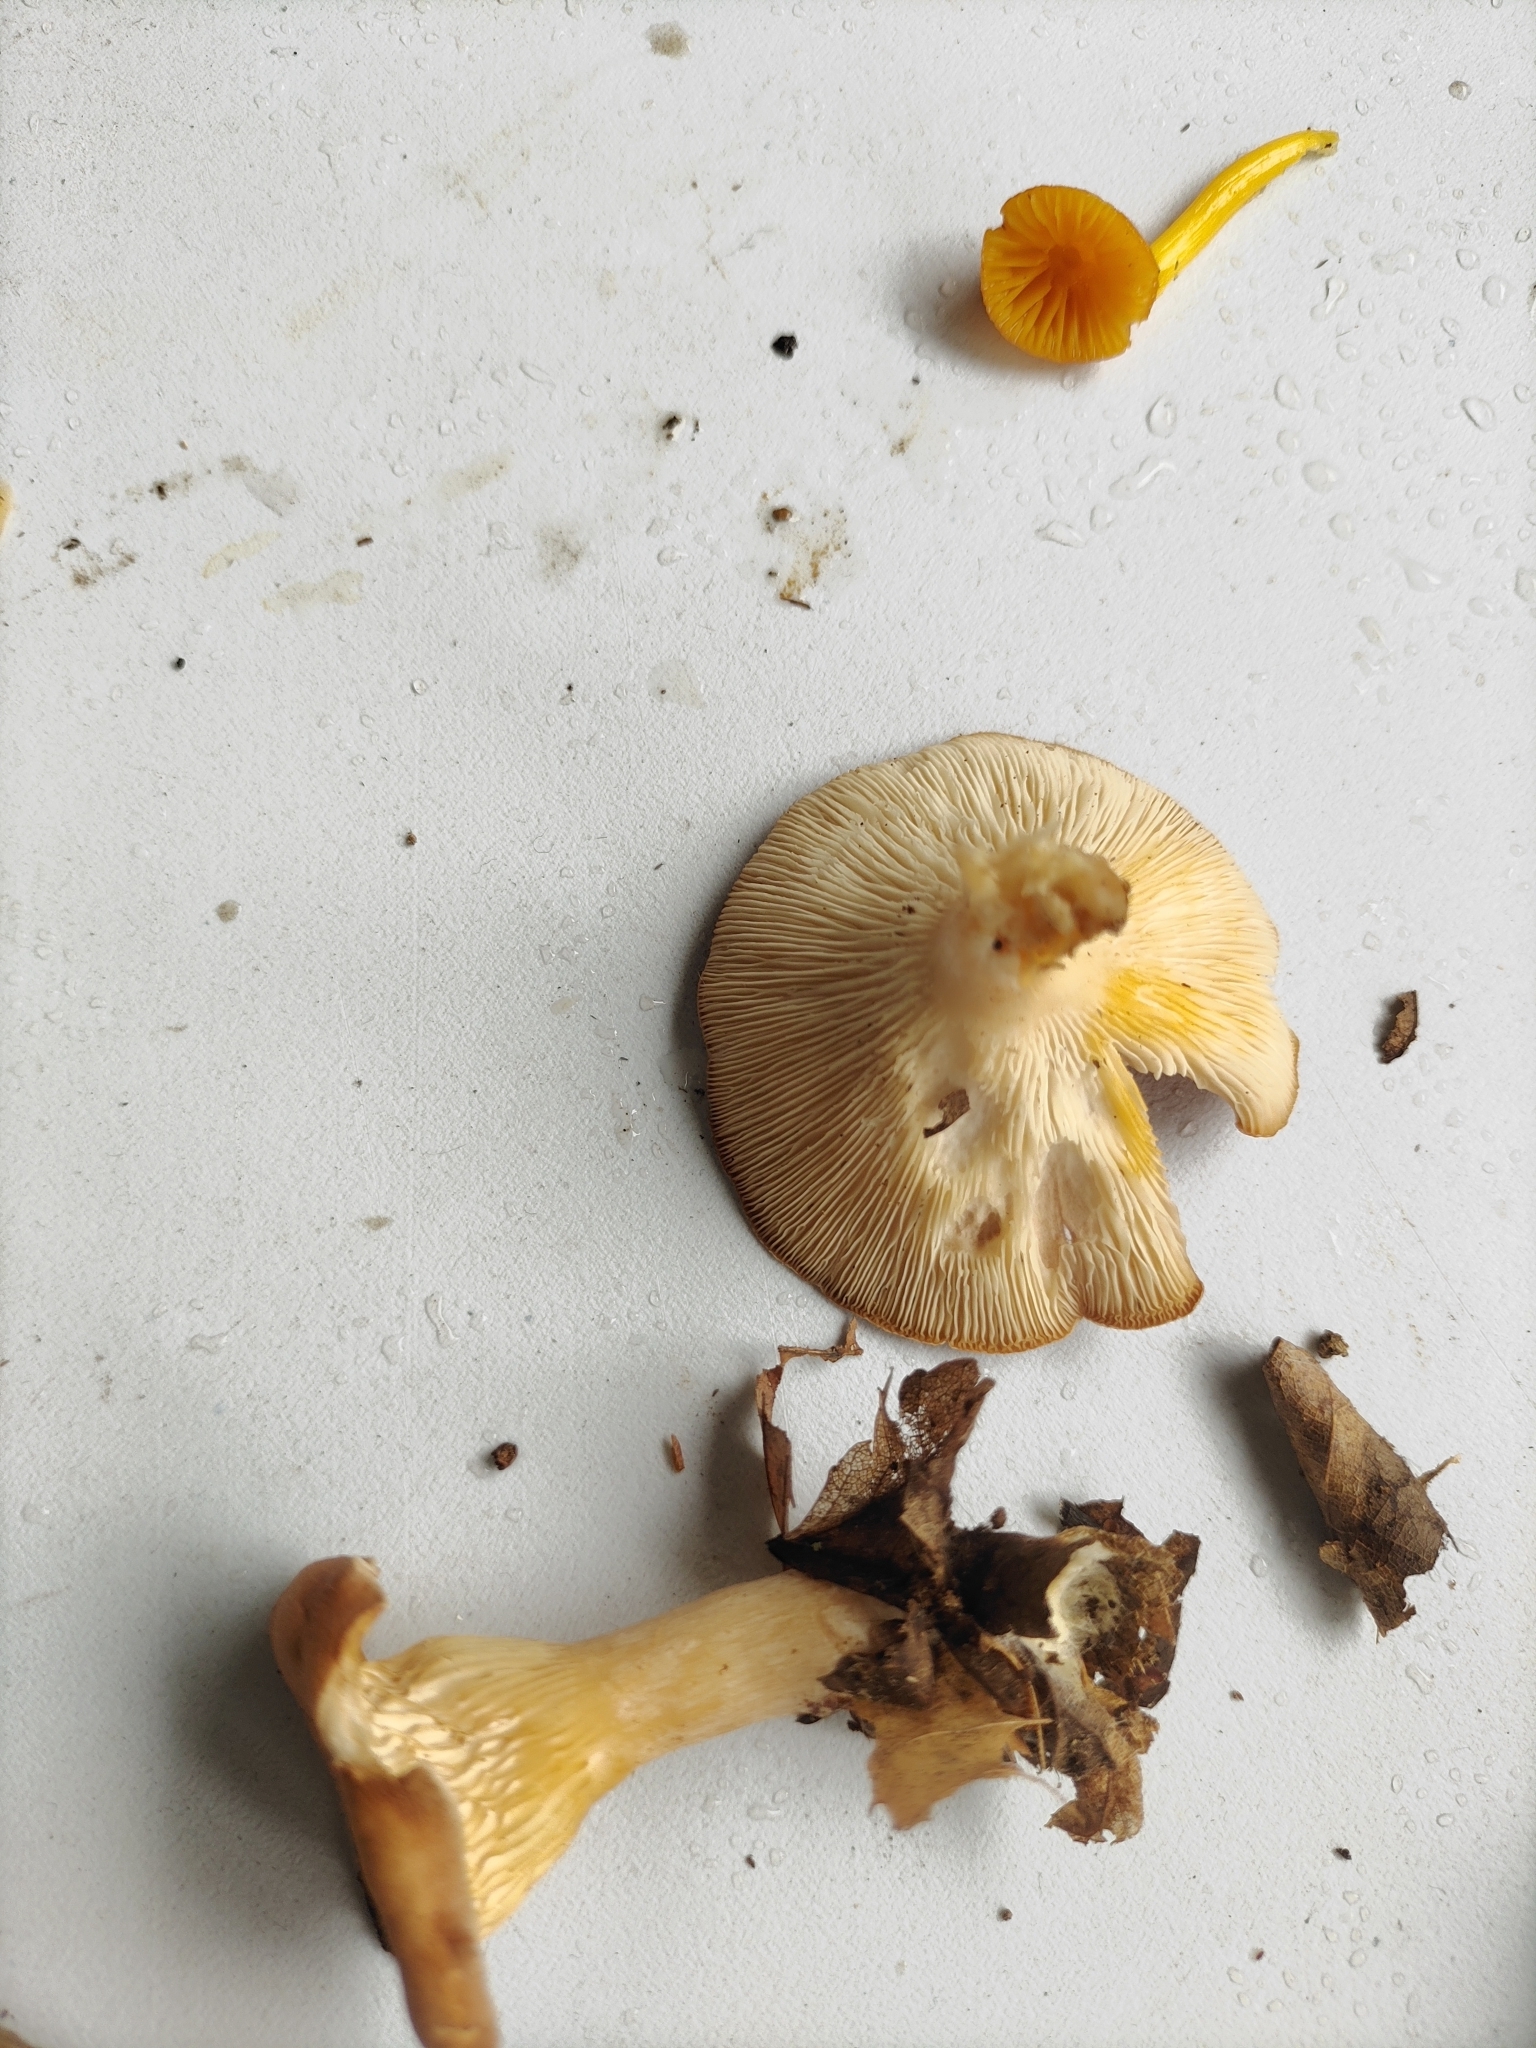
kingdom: Fungi
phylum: Basidiomycota
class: Agaricomycetes
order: Agaricales
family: Tricholomataceae
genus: Infundibulicybe
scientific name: Infundibulicybe gibba
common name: Common funnel
